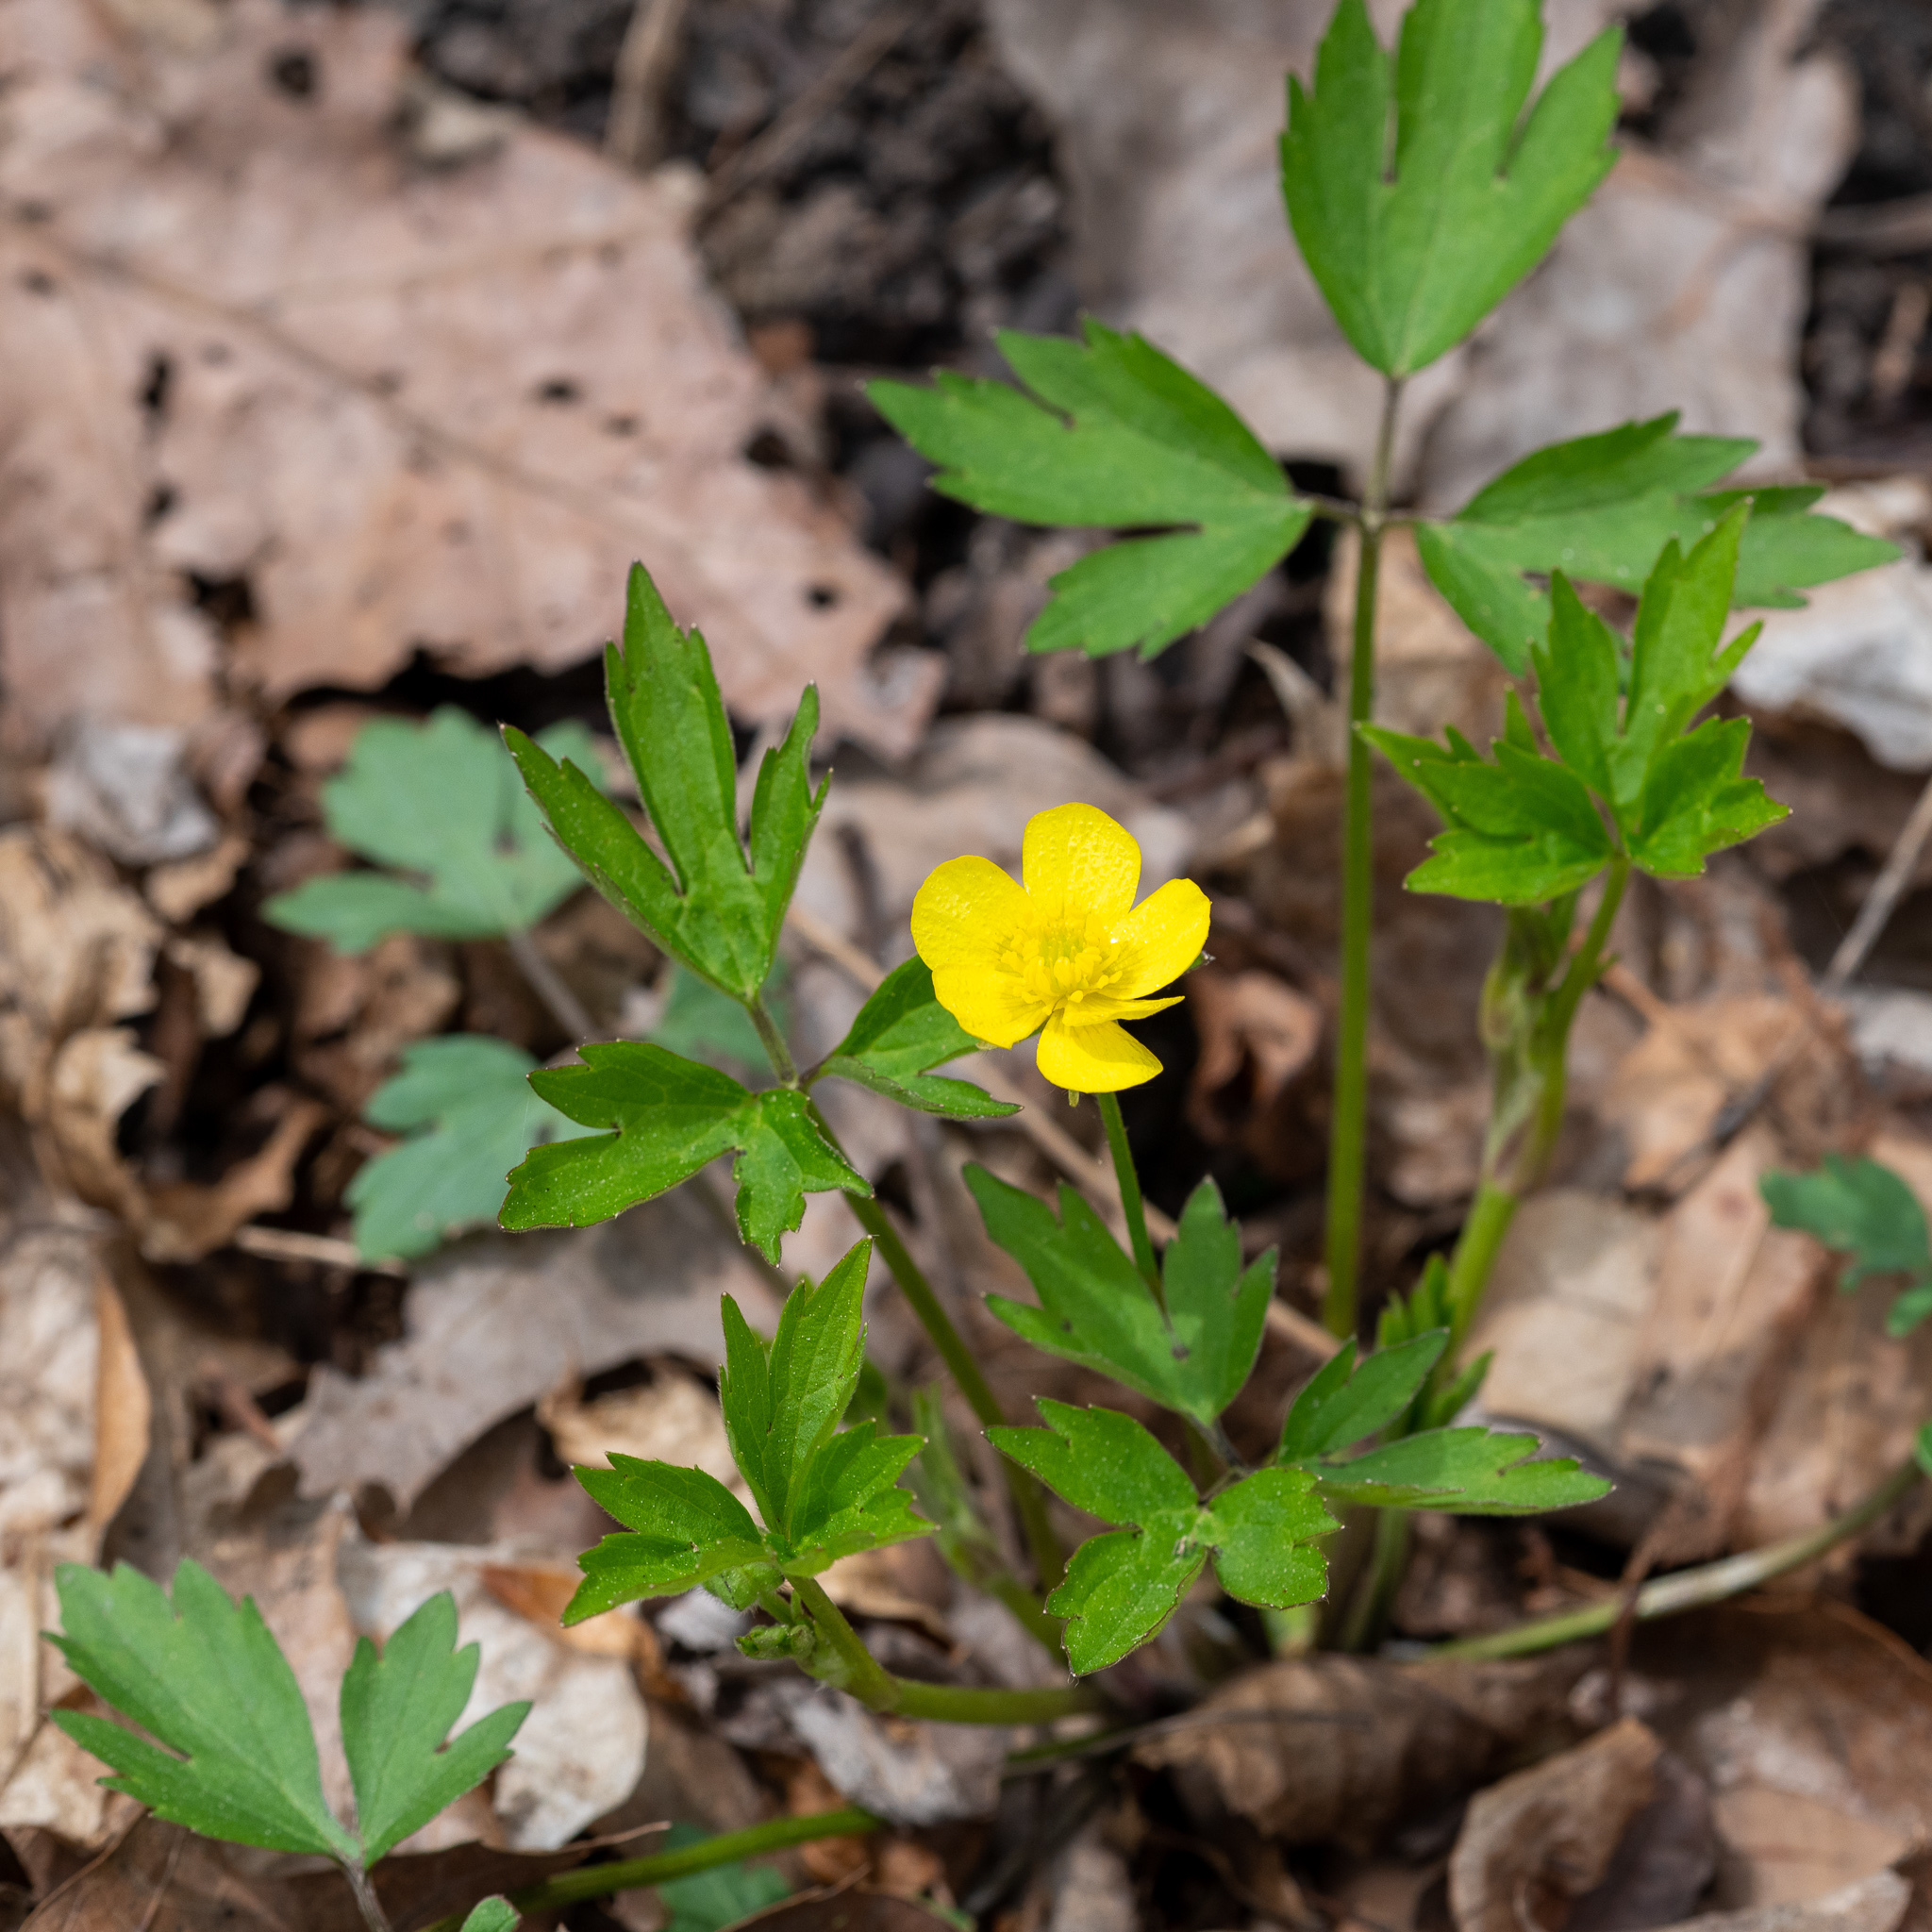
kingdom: Plantae
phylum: Tracheophyta
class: Magnoliopsida
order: Ranunculales
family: Ranunculaceae
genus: Ranunculus
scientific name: Ranunculus hispidus
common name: Bristly buttercup
